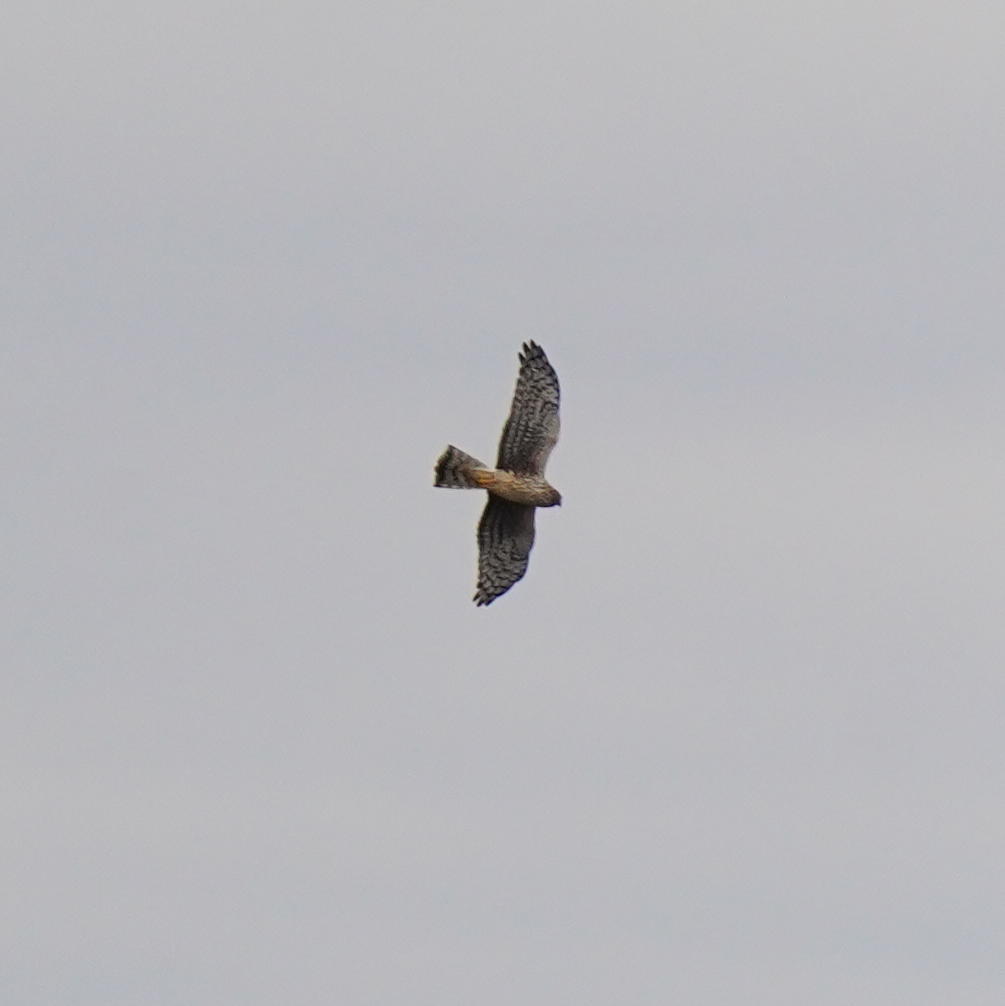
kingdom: Animalia
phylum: Chordata
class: Aves
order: Accipitriformes
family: Accipitridae
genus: Circus
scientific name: Circus cyaneus
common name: Hen harrier
